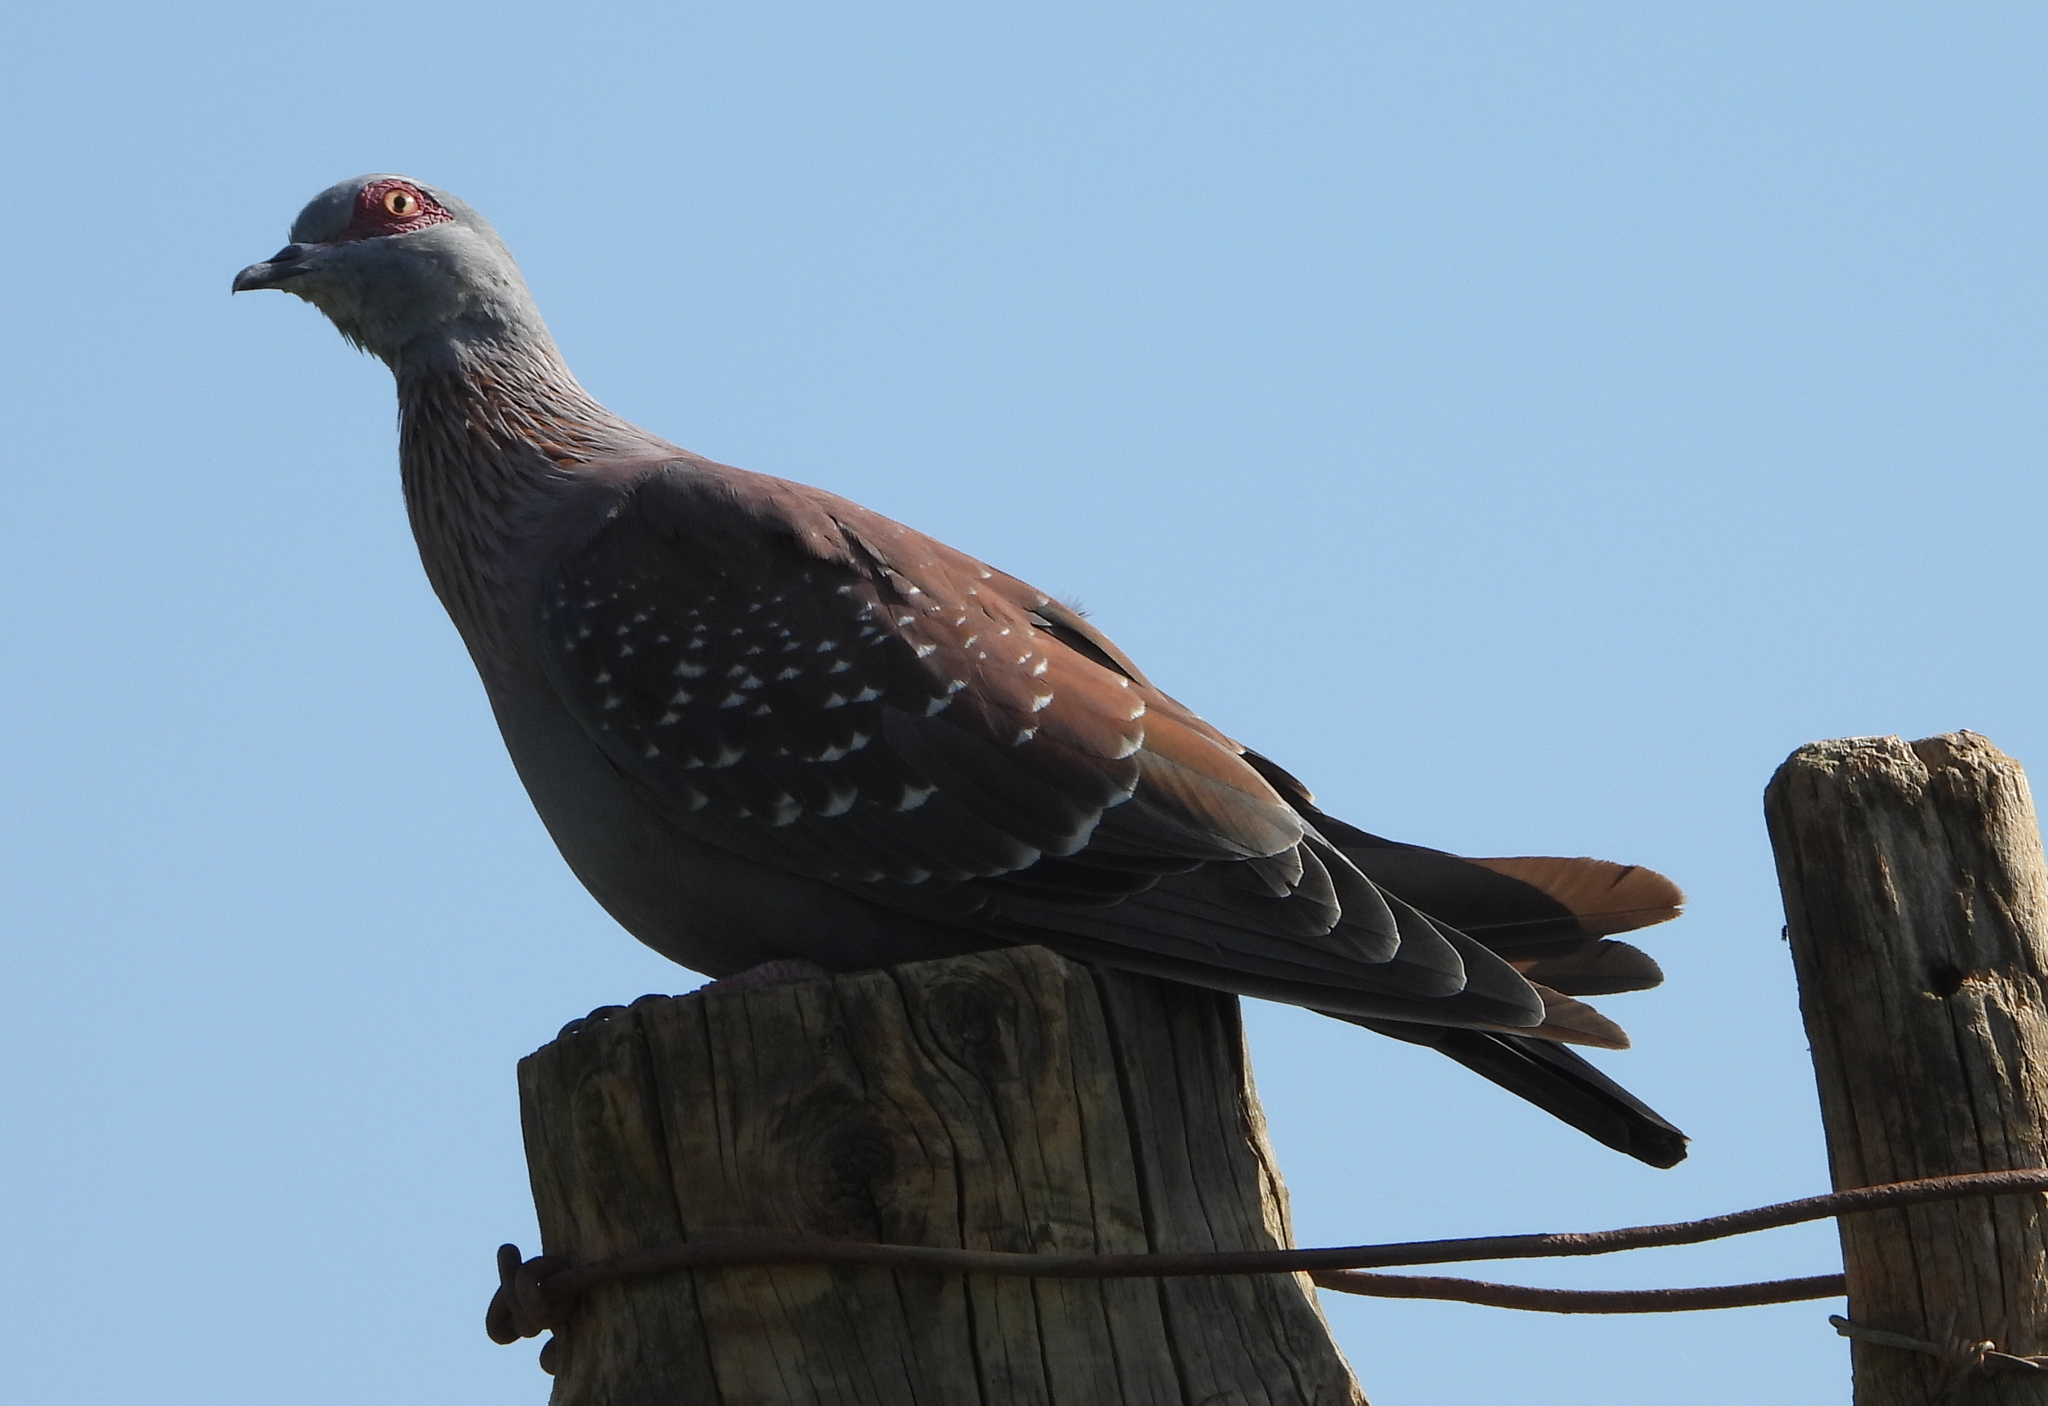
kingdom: Animalia
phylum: Chordata
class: Aves
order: Columbiformes
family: Columbidae
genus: Columba
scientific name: Columba guinea
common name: Speckled pigeon
